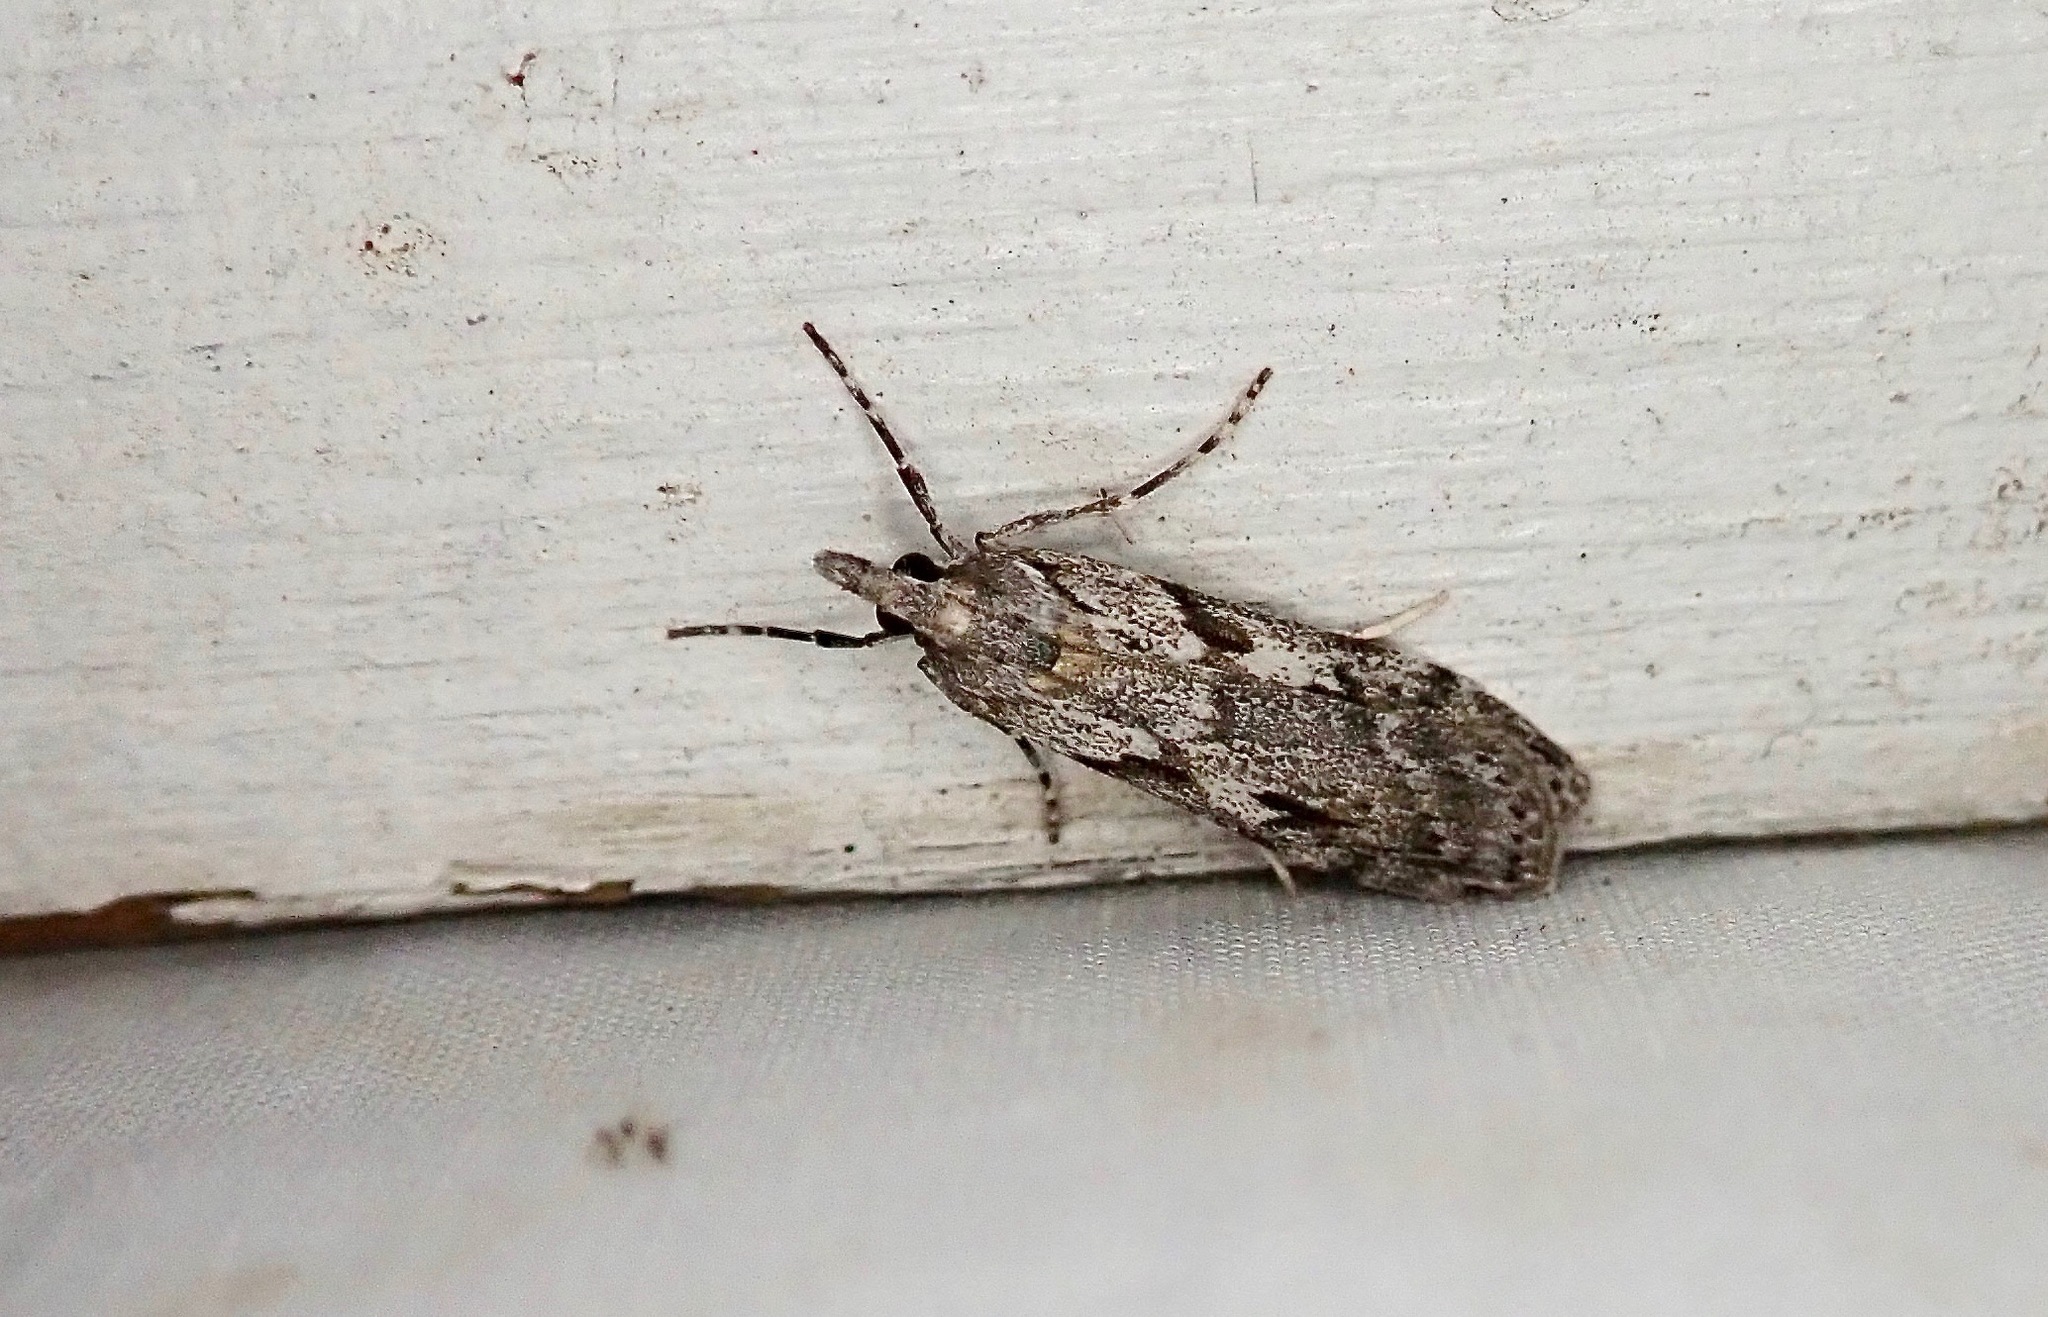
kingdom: Animalia
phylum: Arthropoda
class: Insecta
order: Lepidoptera
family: Crambidae
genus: Scoparia
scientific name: Scoparia halopis
